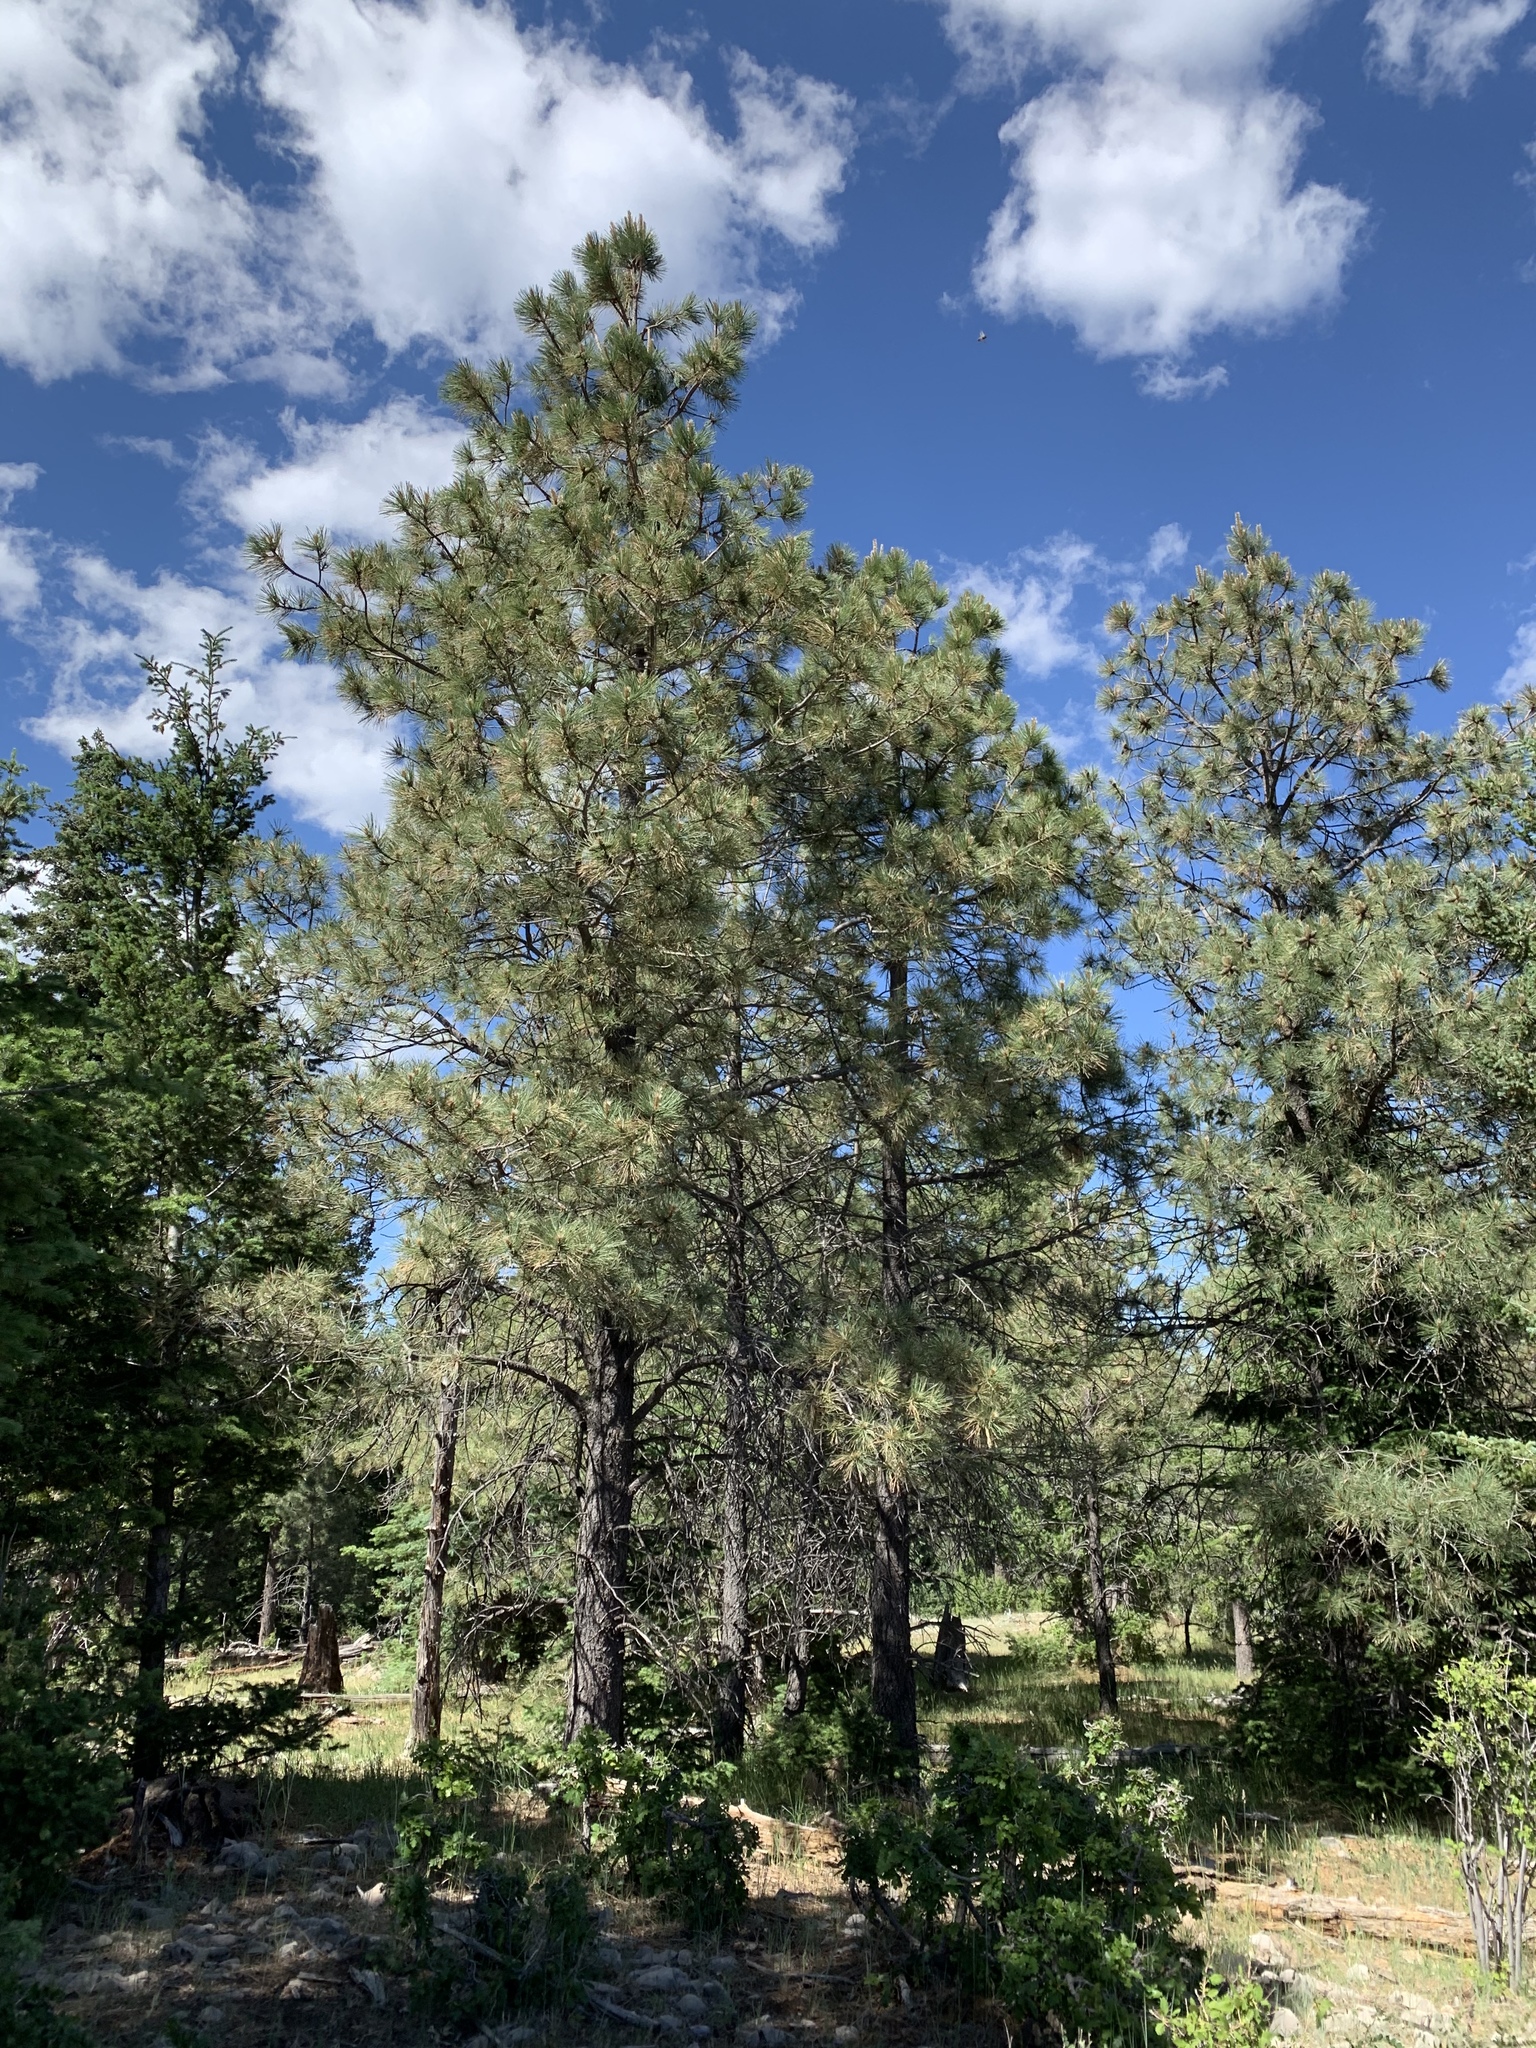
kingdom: Plantae
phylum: Tracheophyta
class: Pinopsida
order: Pinales
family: Pinaceae
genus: Pinus
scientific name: Pinus ponderosa
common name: Western yellow-pine
